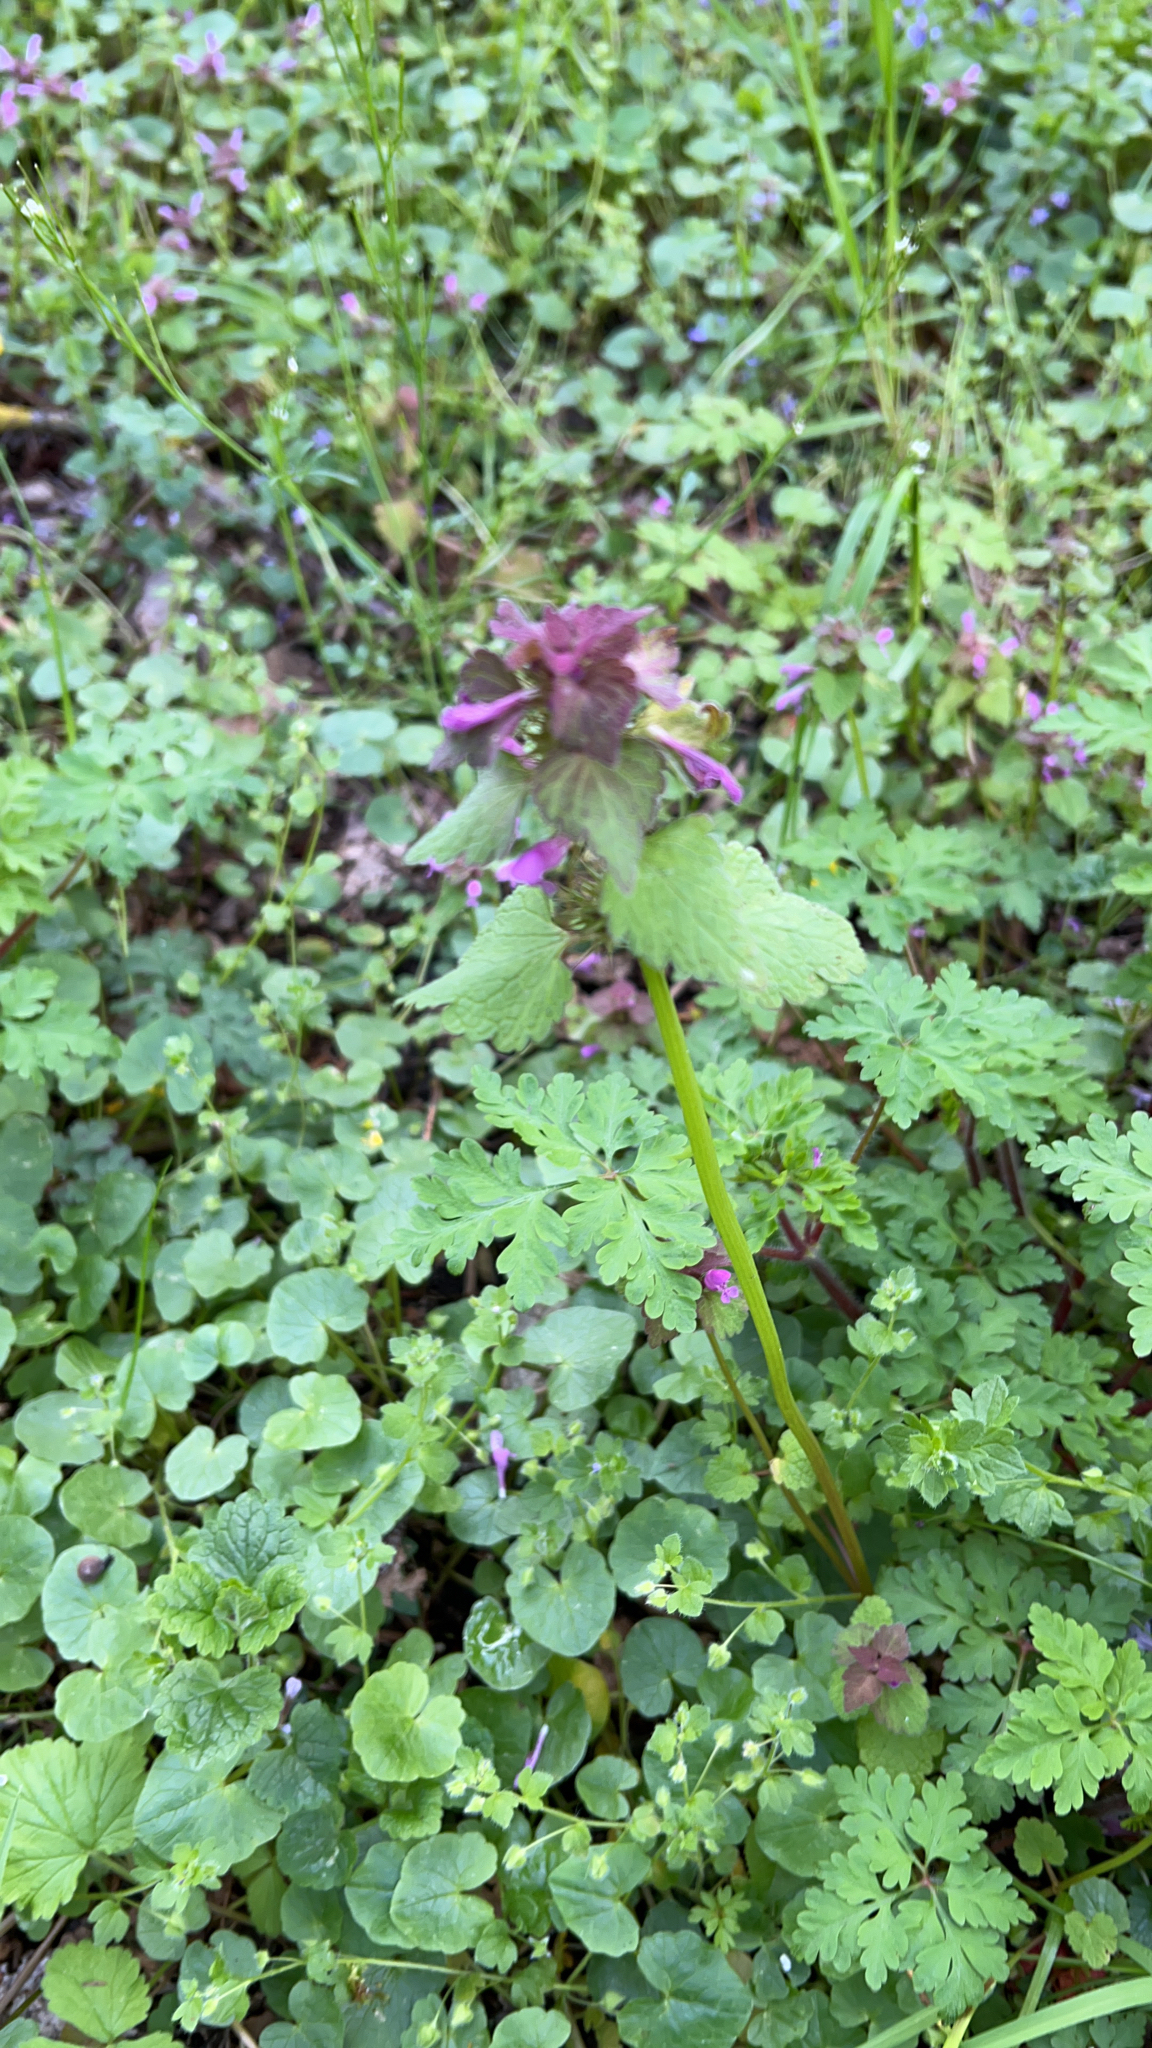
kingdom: Plantae
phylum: Tracheophyta
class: Magnoliopsida
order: Lamiales
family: Lamiaceae
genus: Lamium
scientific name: Lamium purpureum
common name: Red dead-nettle
